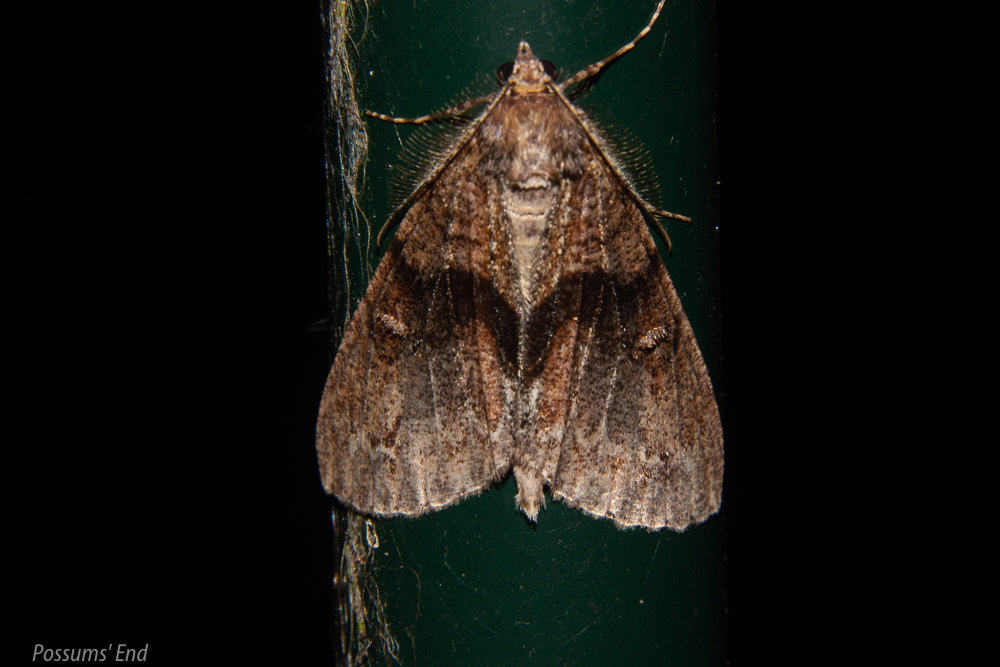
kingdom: Animalia
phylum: Arthropoda
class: Insecta
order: Lepidoptera
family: Geometridae
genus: Pseudocoremia
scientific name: Pseudocoremia suavis
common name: Common forest looper
